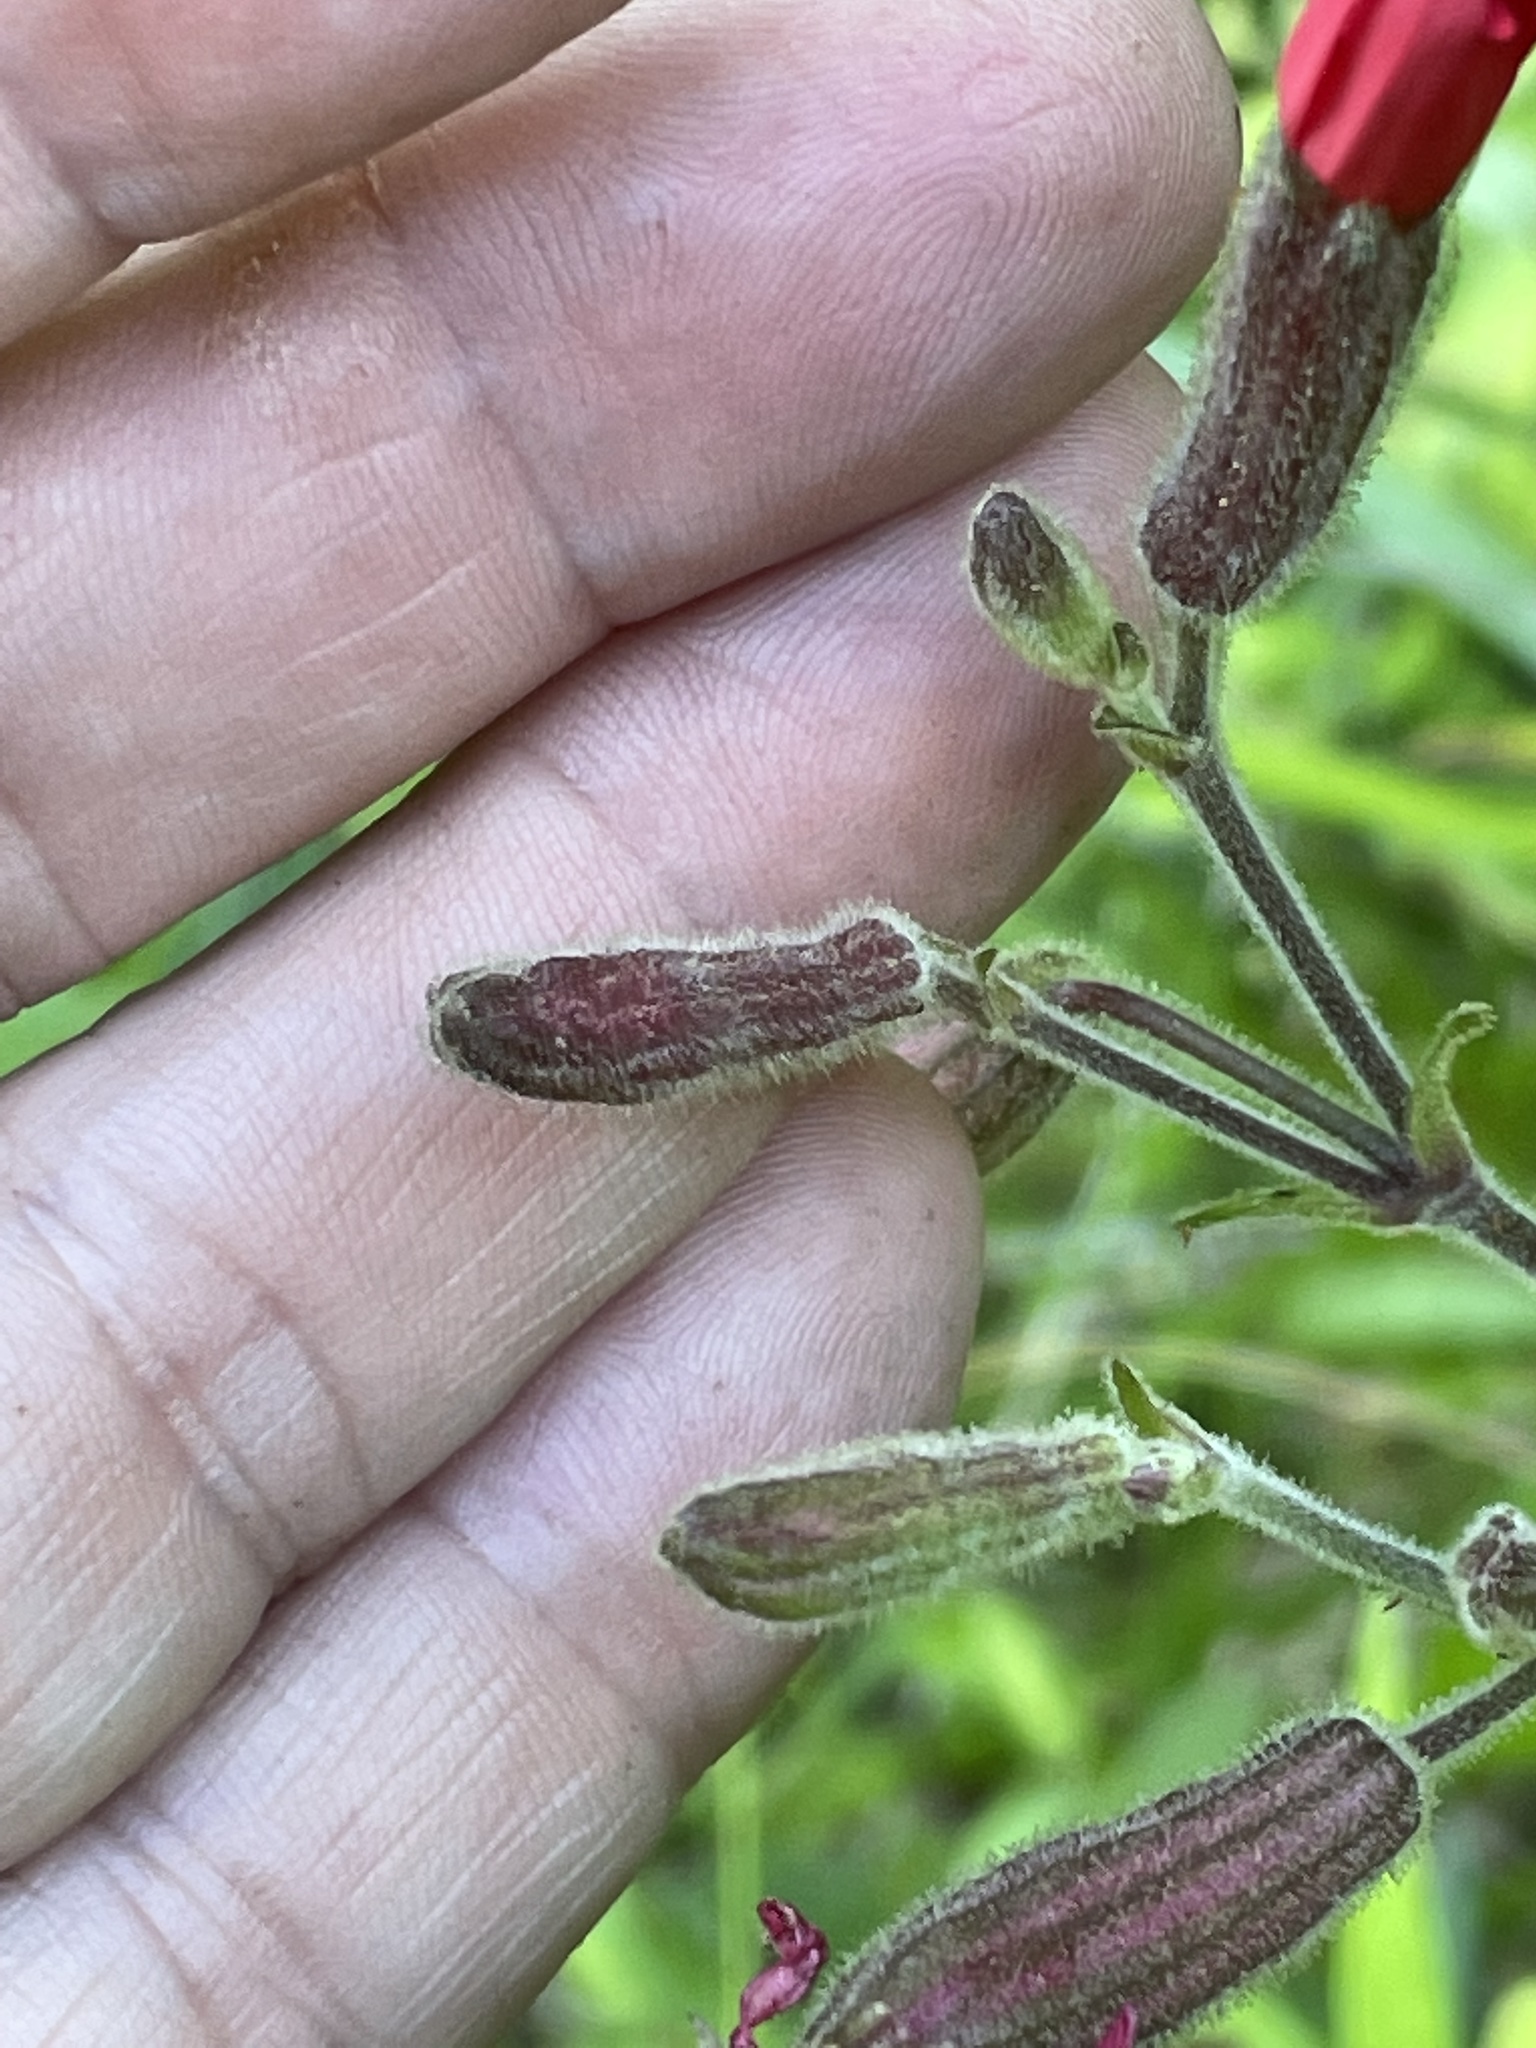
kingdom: Plantae
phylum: Tracheophyta
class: Magnoliopsida
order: Caryophyllales
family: Caryophyllaceae
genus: Silene
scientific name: Silene virginica
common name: Fire-pink
